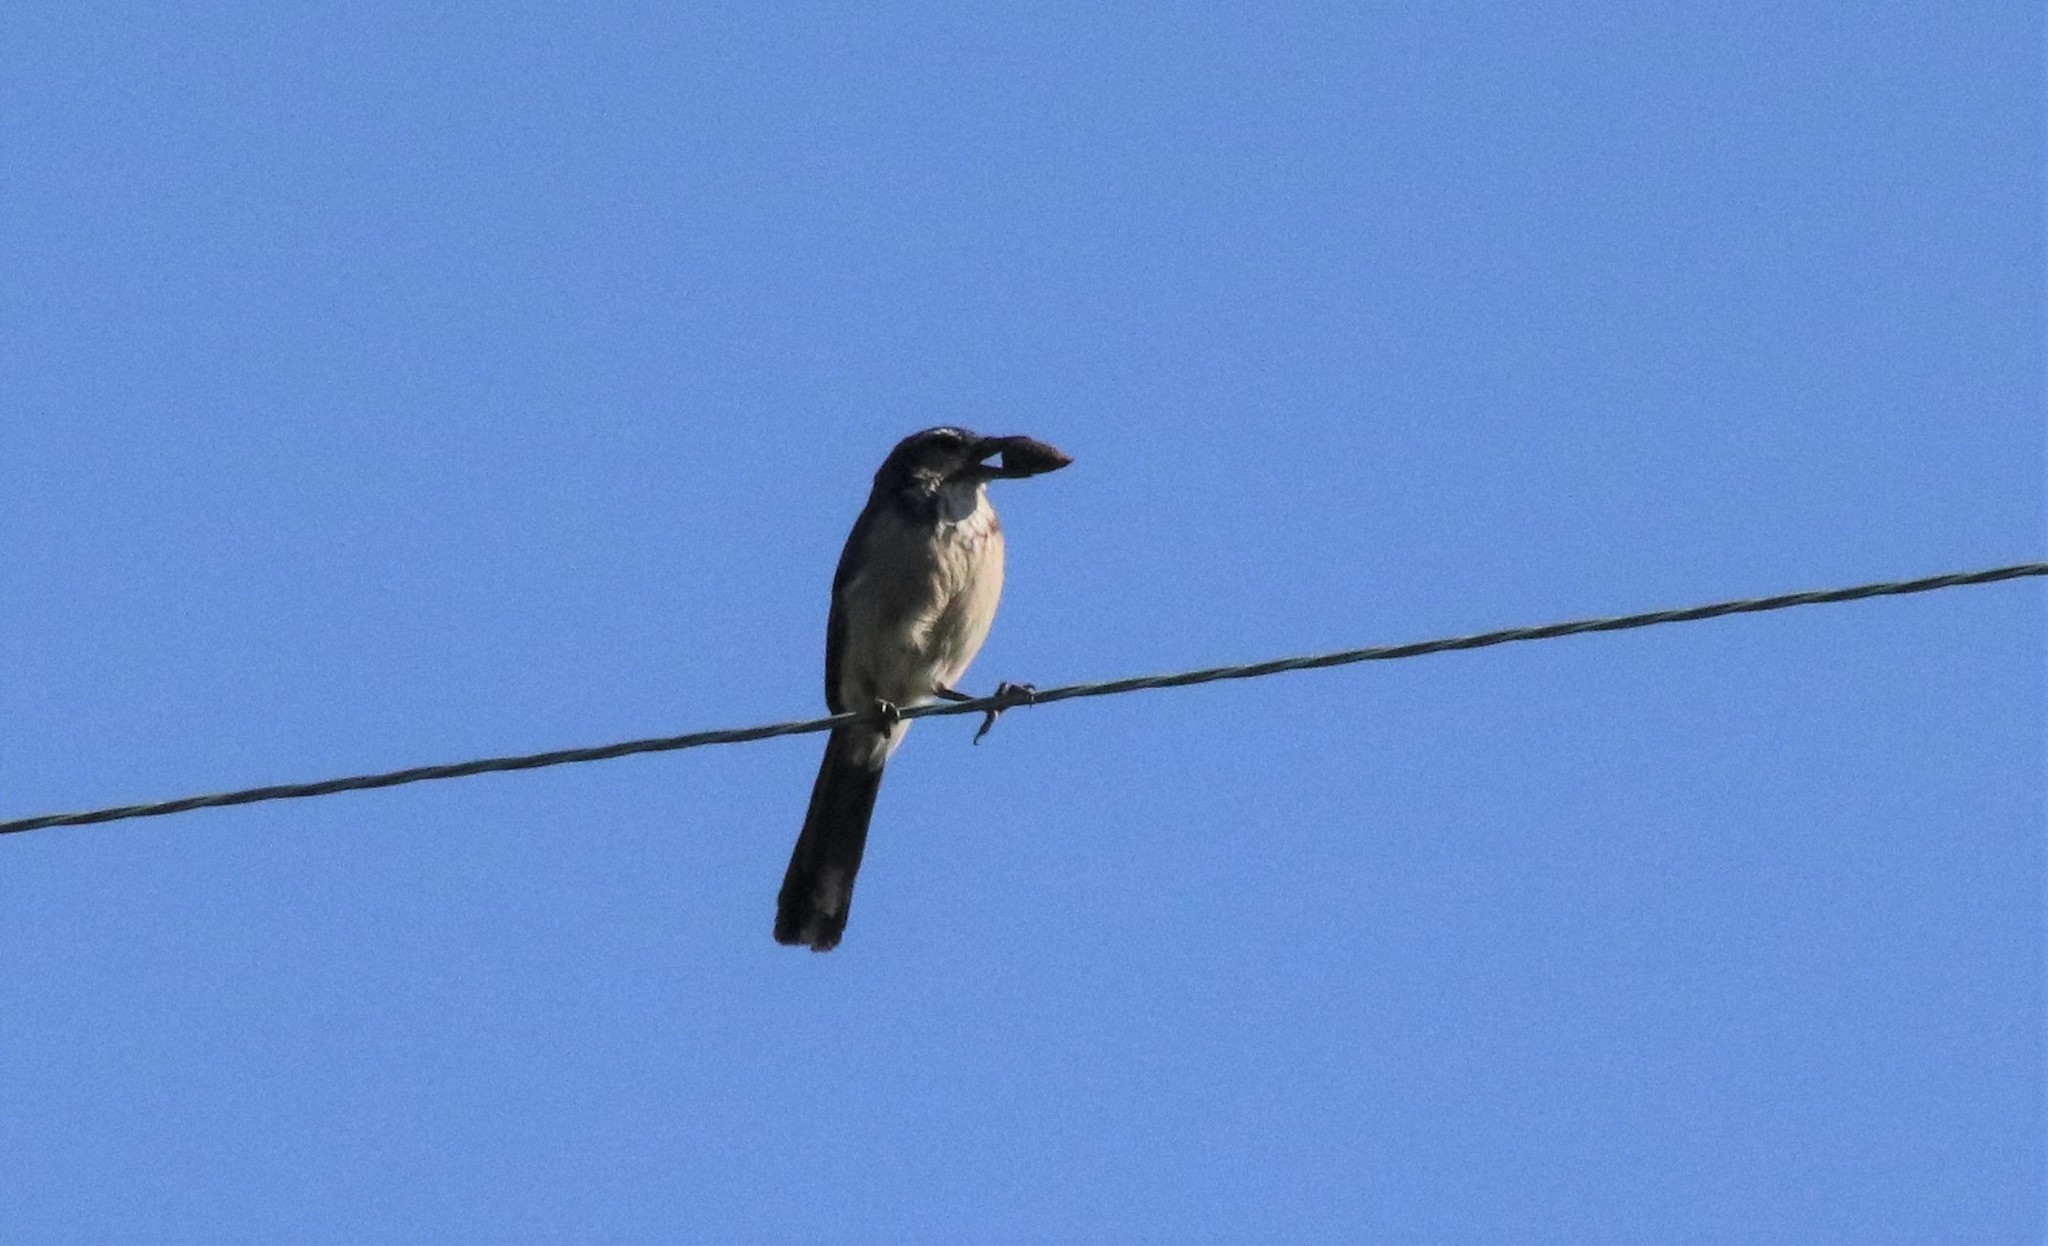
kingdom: Animalia
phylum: Chordata
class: Aves
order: Passeriformes
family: Corvidae
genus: Aphelocoma
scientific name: Aphelocoma californica
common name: California scrub-jay
